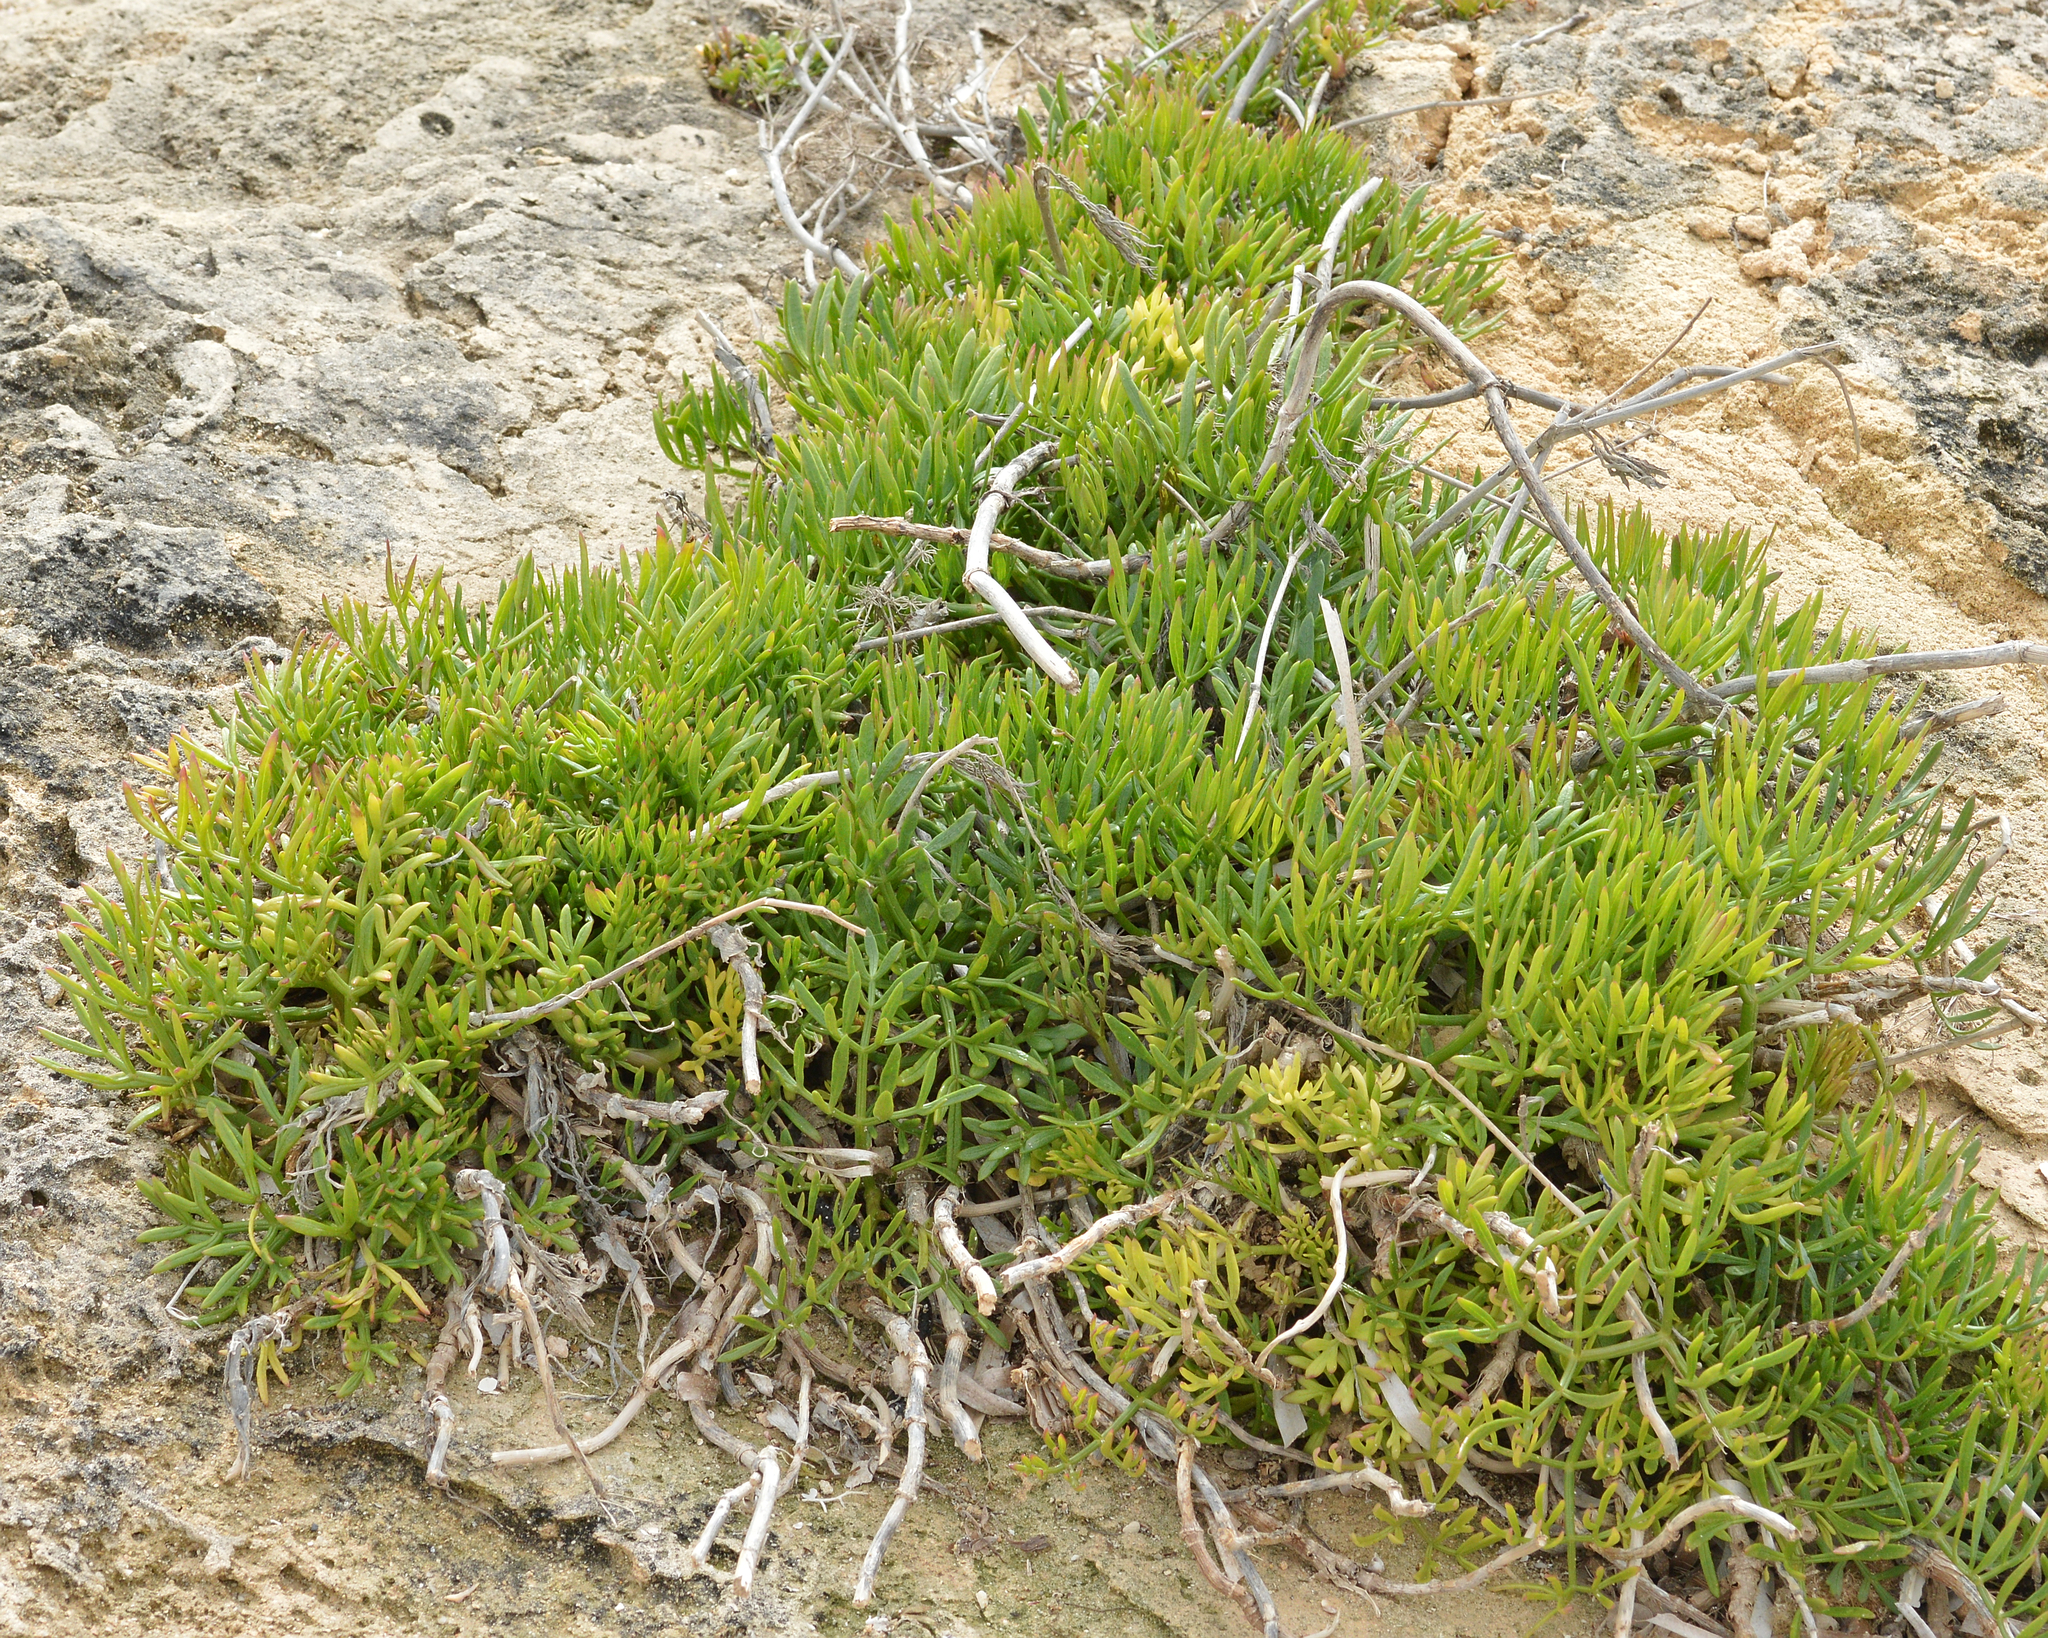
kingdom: Plantae
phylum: Tracheophyta
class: Magnoliopsida
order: Apiales
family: Apiaceae
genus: Crithmum
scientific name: Crithmum maritimum
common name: Rock samphire
